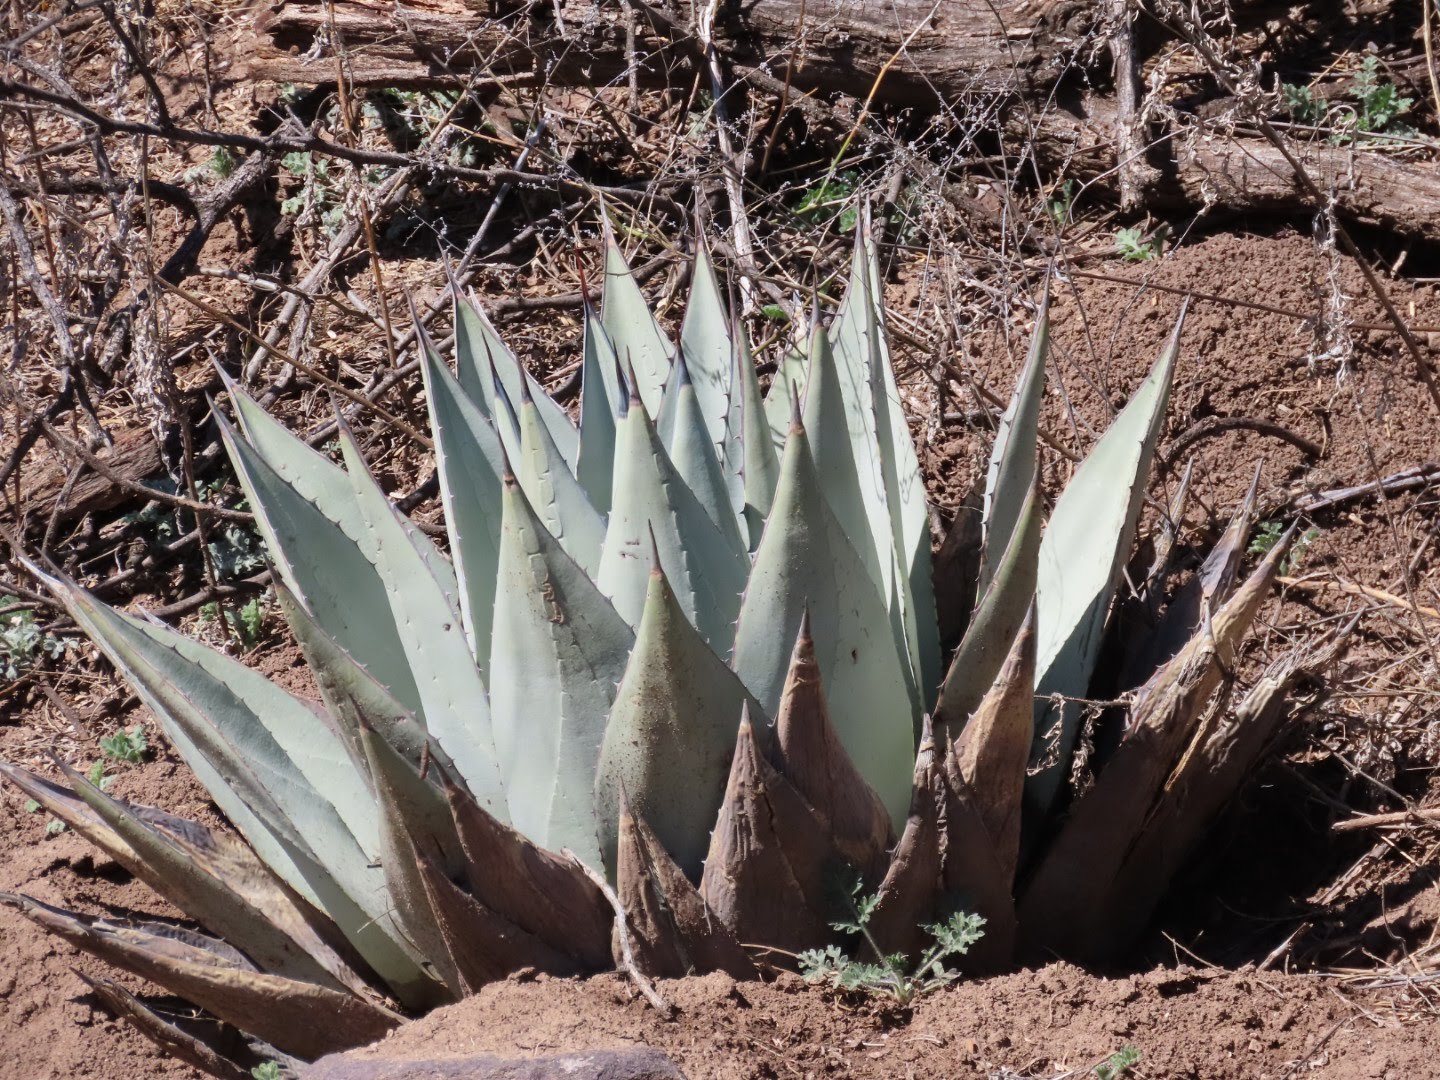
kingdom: Plantae
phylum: Tracheophyta
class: Liliopsida
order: Asparagales
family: Asparagaceae
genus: Agave
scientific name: Agave parryi
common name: Parry's agave
